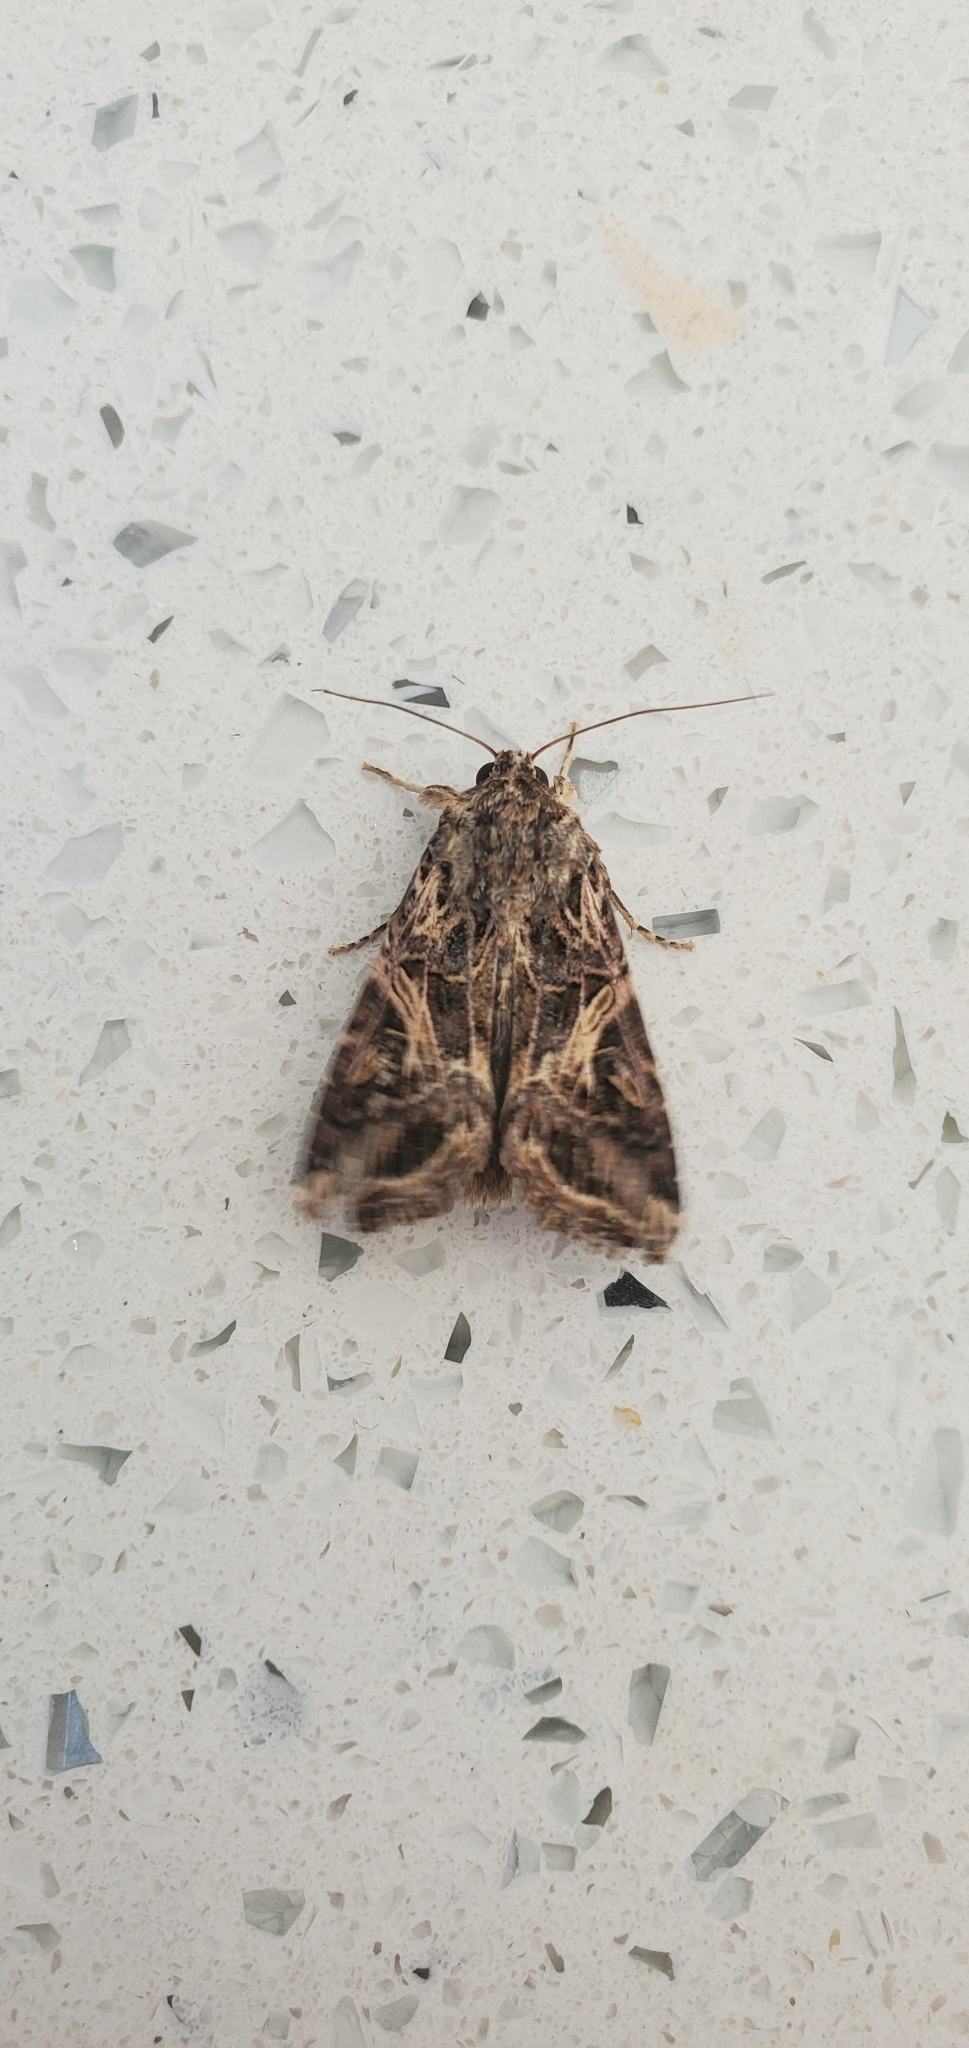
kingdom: Animalia
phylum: Arthropoda
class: Insecta
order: Lepidoptera
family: Noctuidae
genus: Spodoptera
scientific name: Spodoptera litura
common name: Asian cotton leafworm
